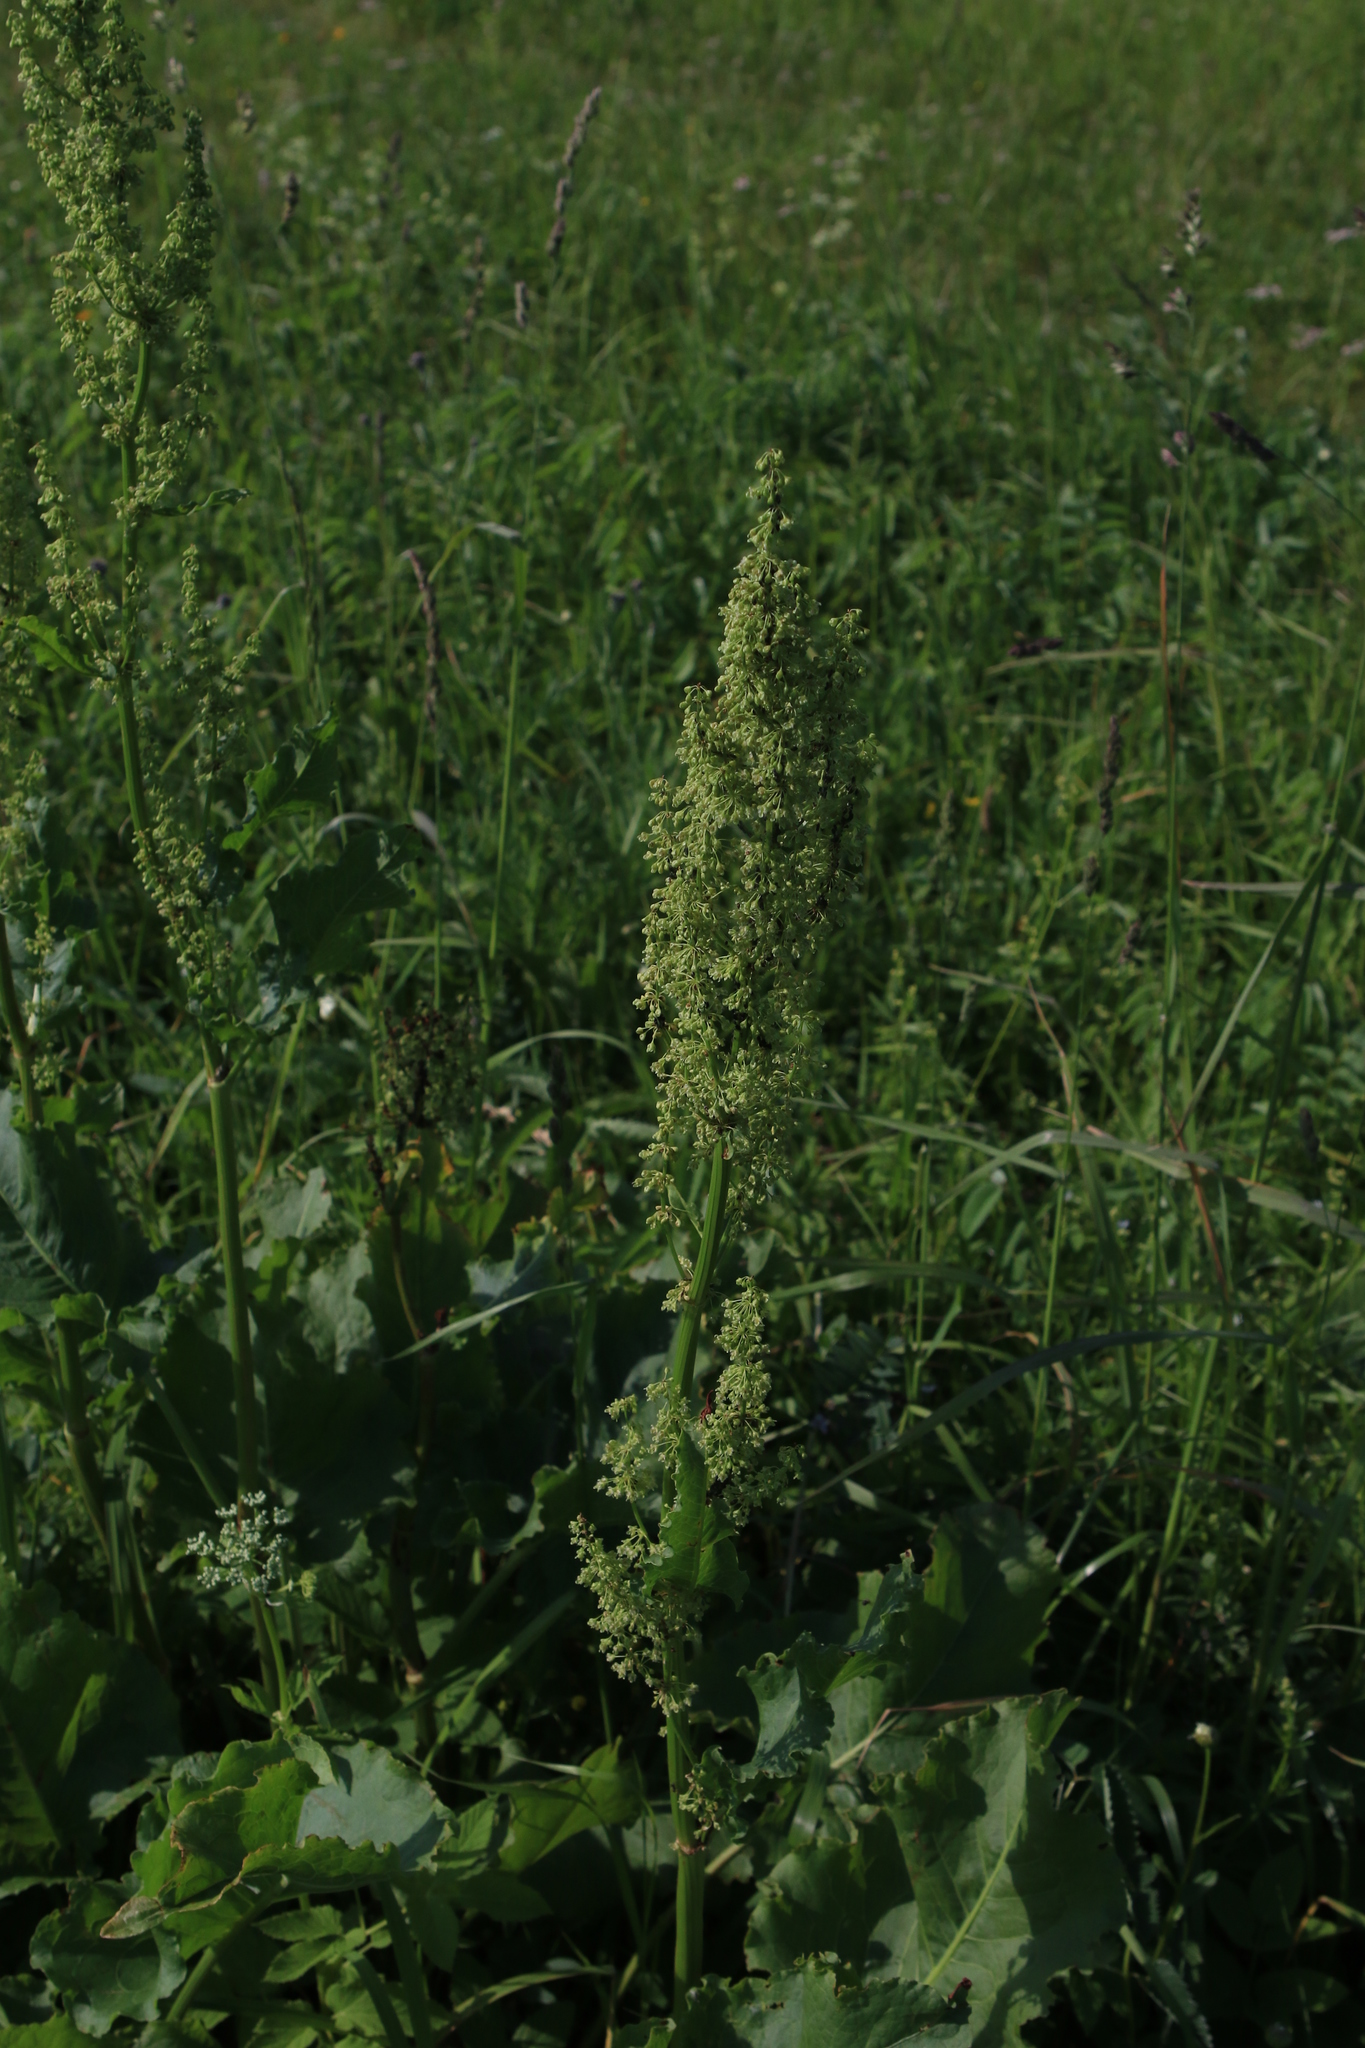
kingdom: Plantae
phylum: Tracheophyta
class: Magnoliopsida
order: Caryophyllales
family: Polygonaceae
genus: Rumex
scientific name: Rumex confertus
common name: Russian dock
